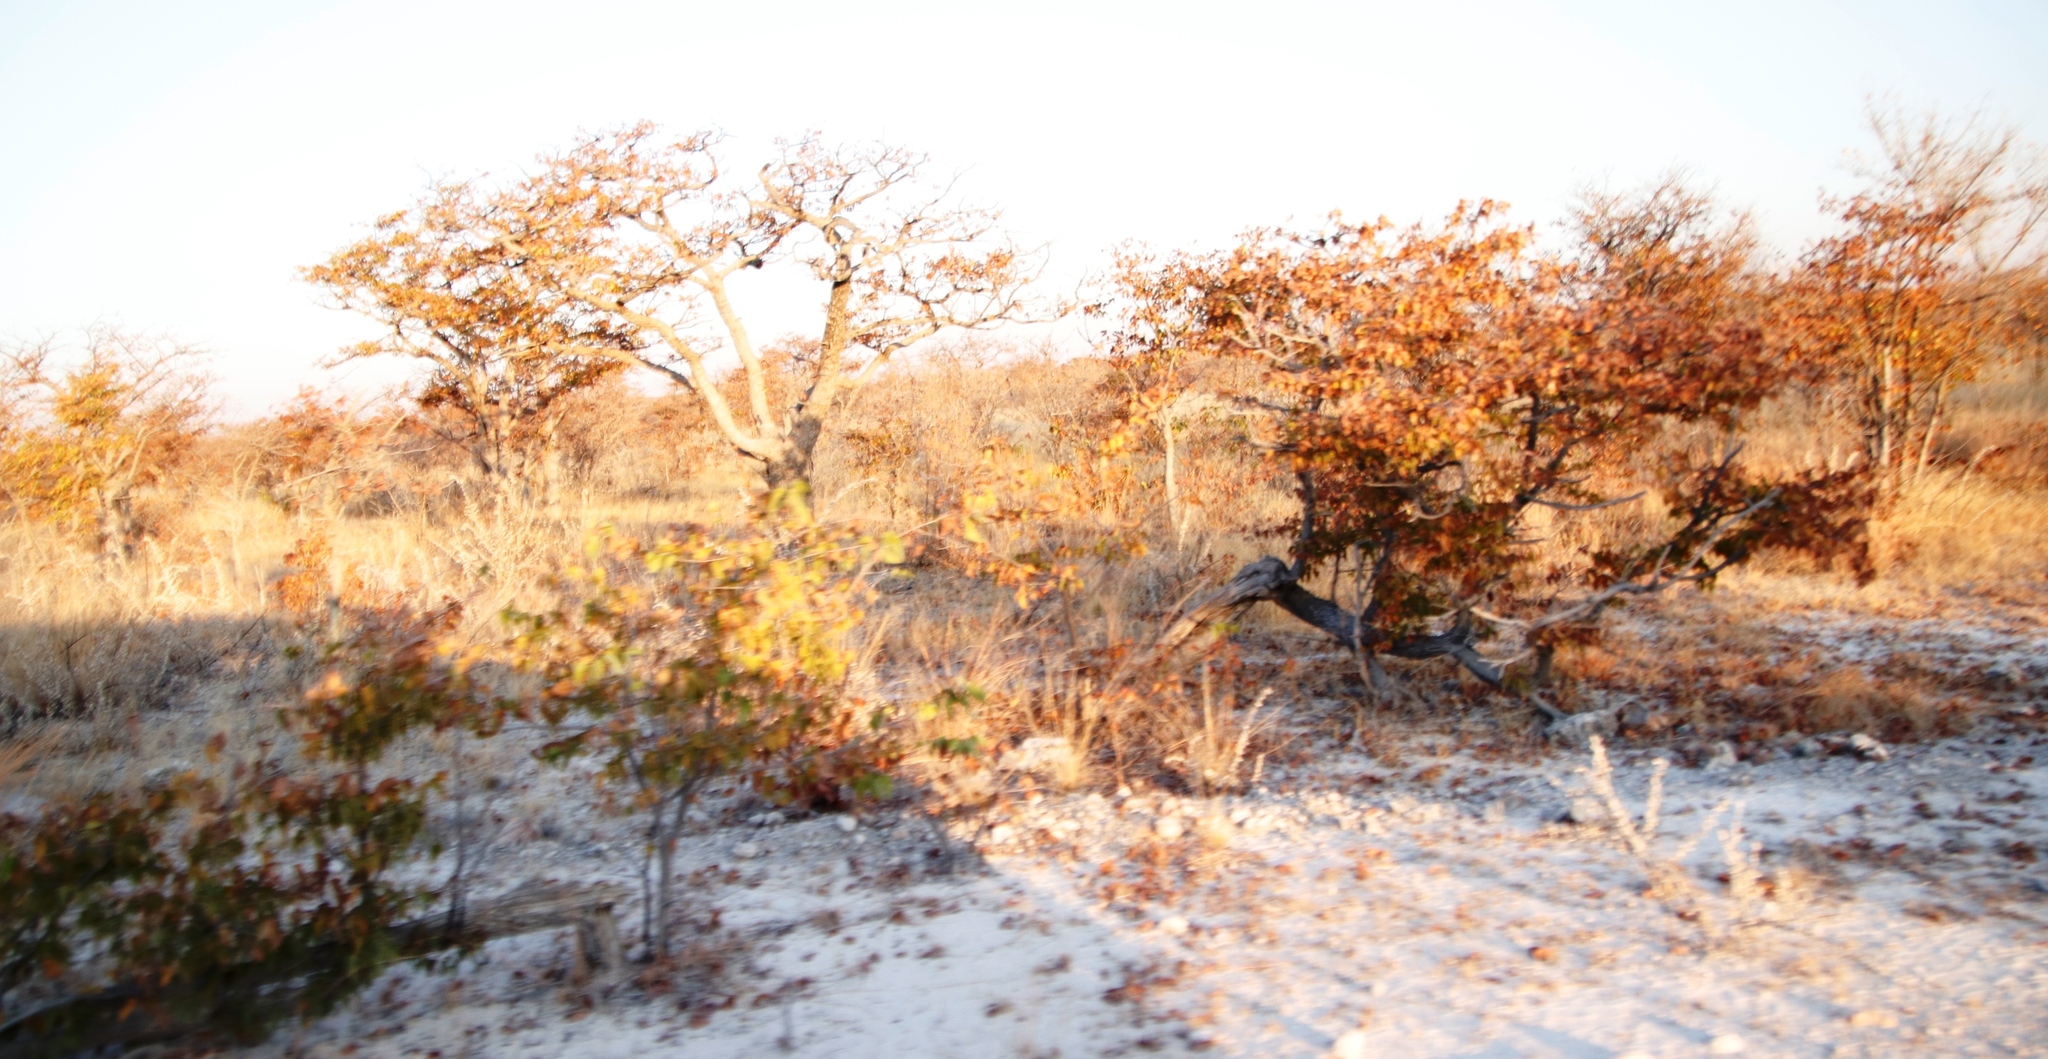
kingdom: Plantae
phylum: Tracheophyta
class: Magnoliopsida
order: Fabales
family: Fabaceae
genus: Colophospermum
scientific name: Colophospermum mopane
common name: Mopane
